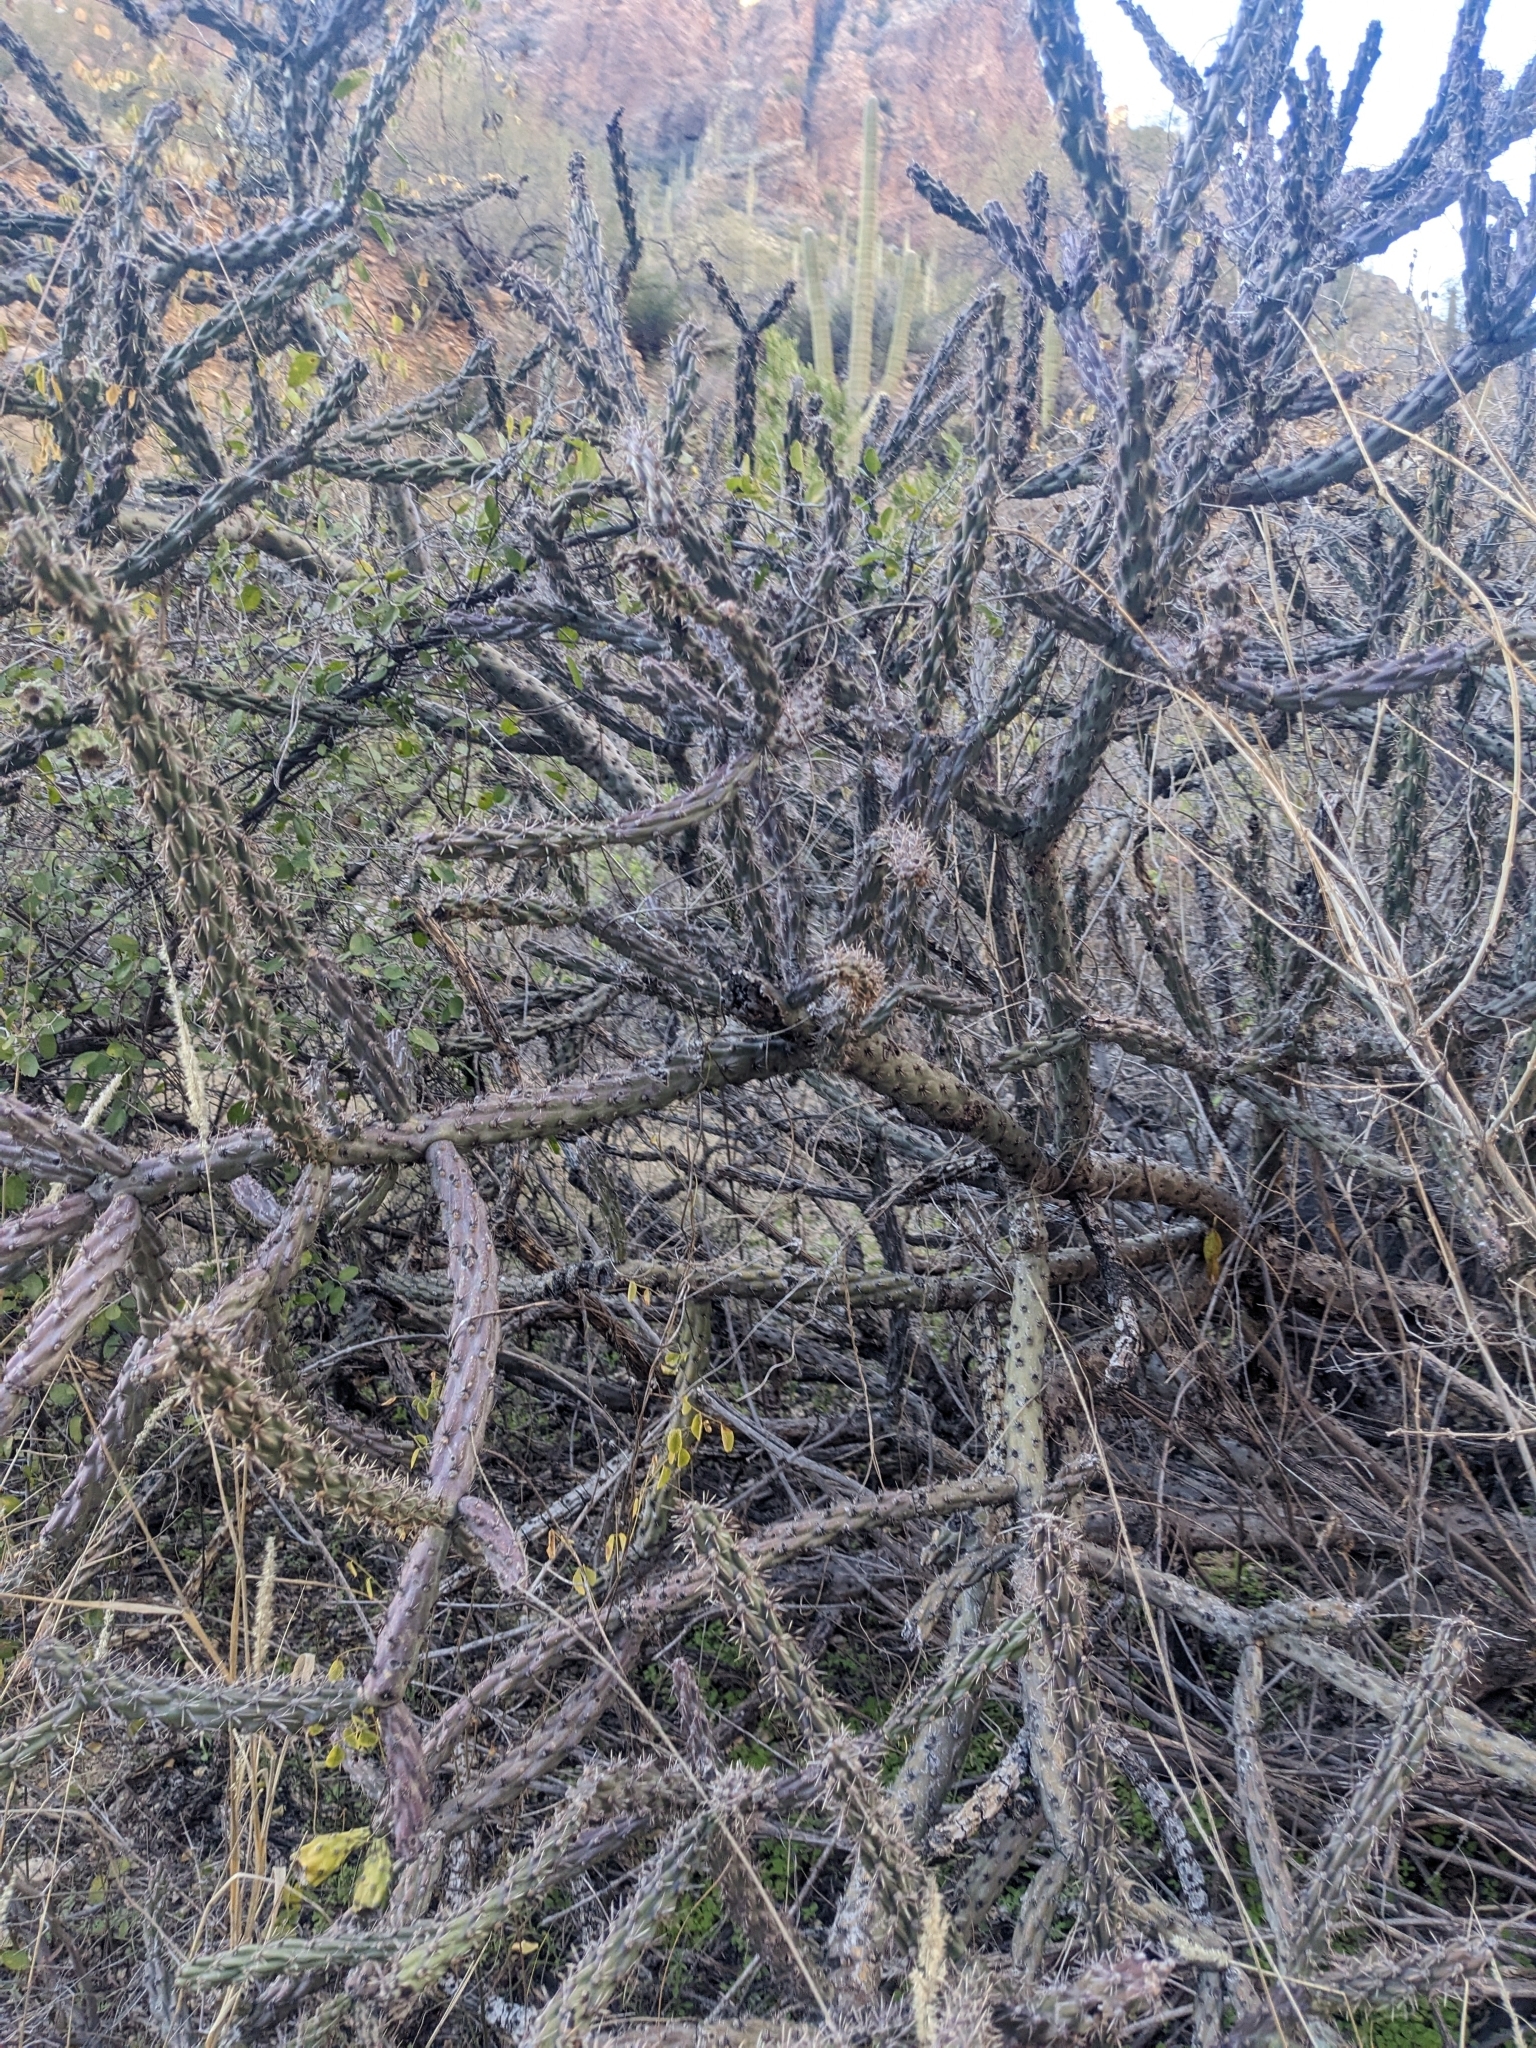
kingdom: Plantae
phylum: Tracheophyta
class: Magnoliopsida
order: Caryophyllales
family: Cactaceae
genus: Cylindropuntia
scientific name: Cylindropuntia thurberi
